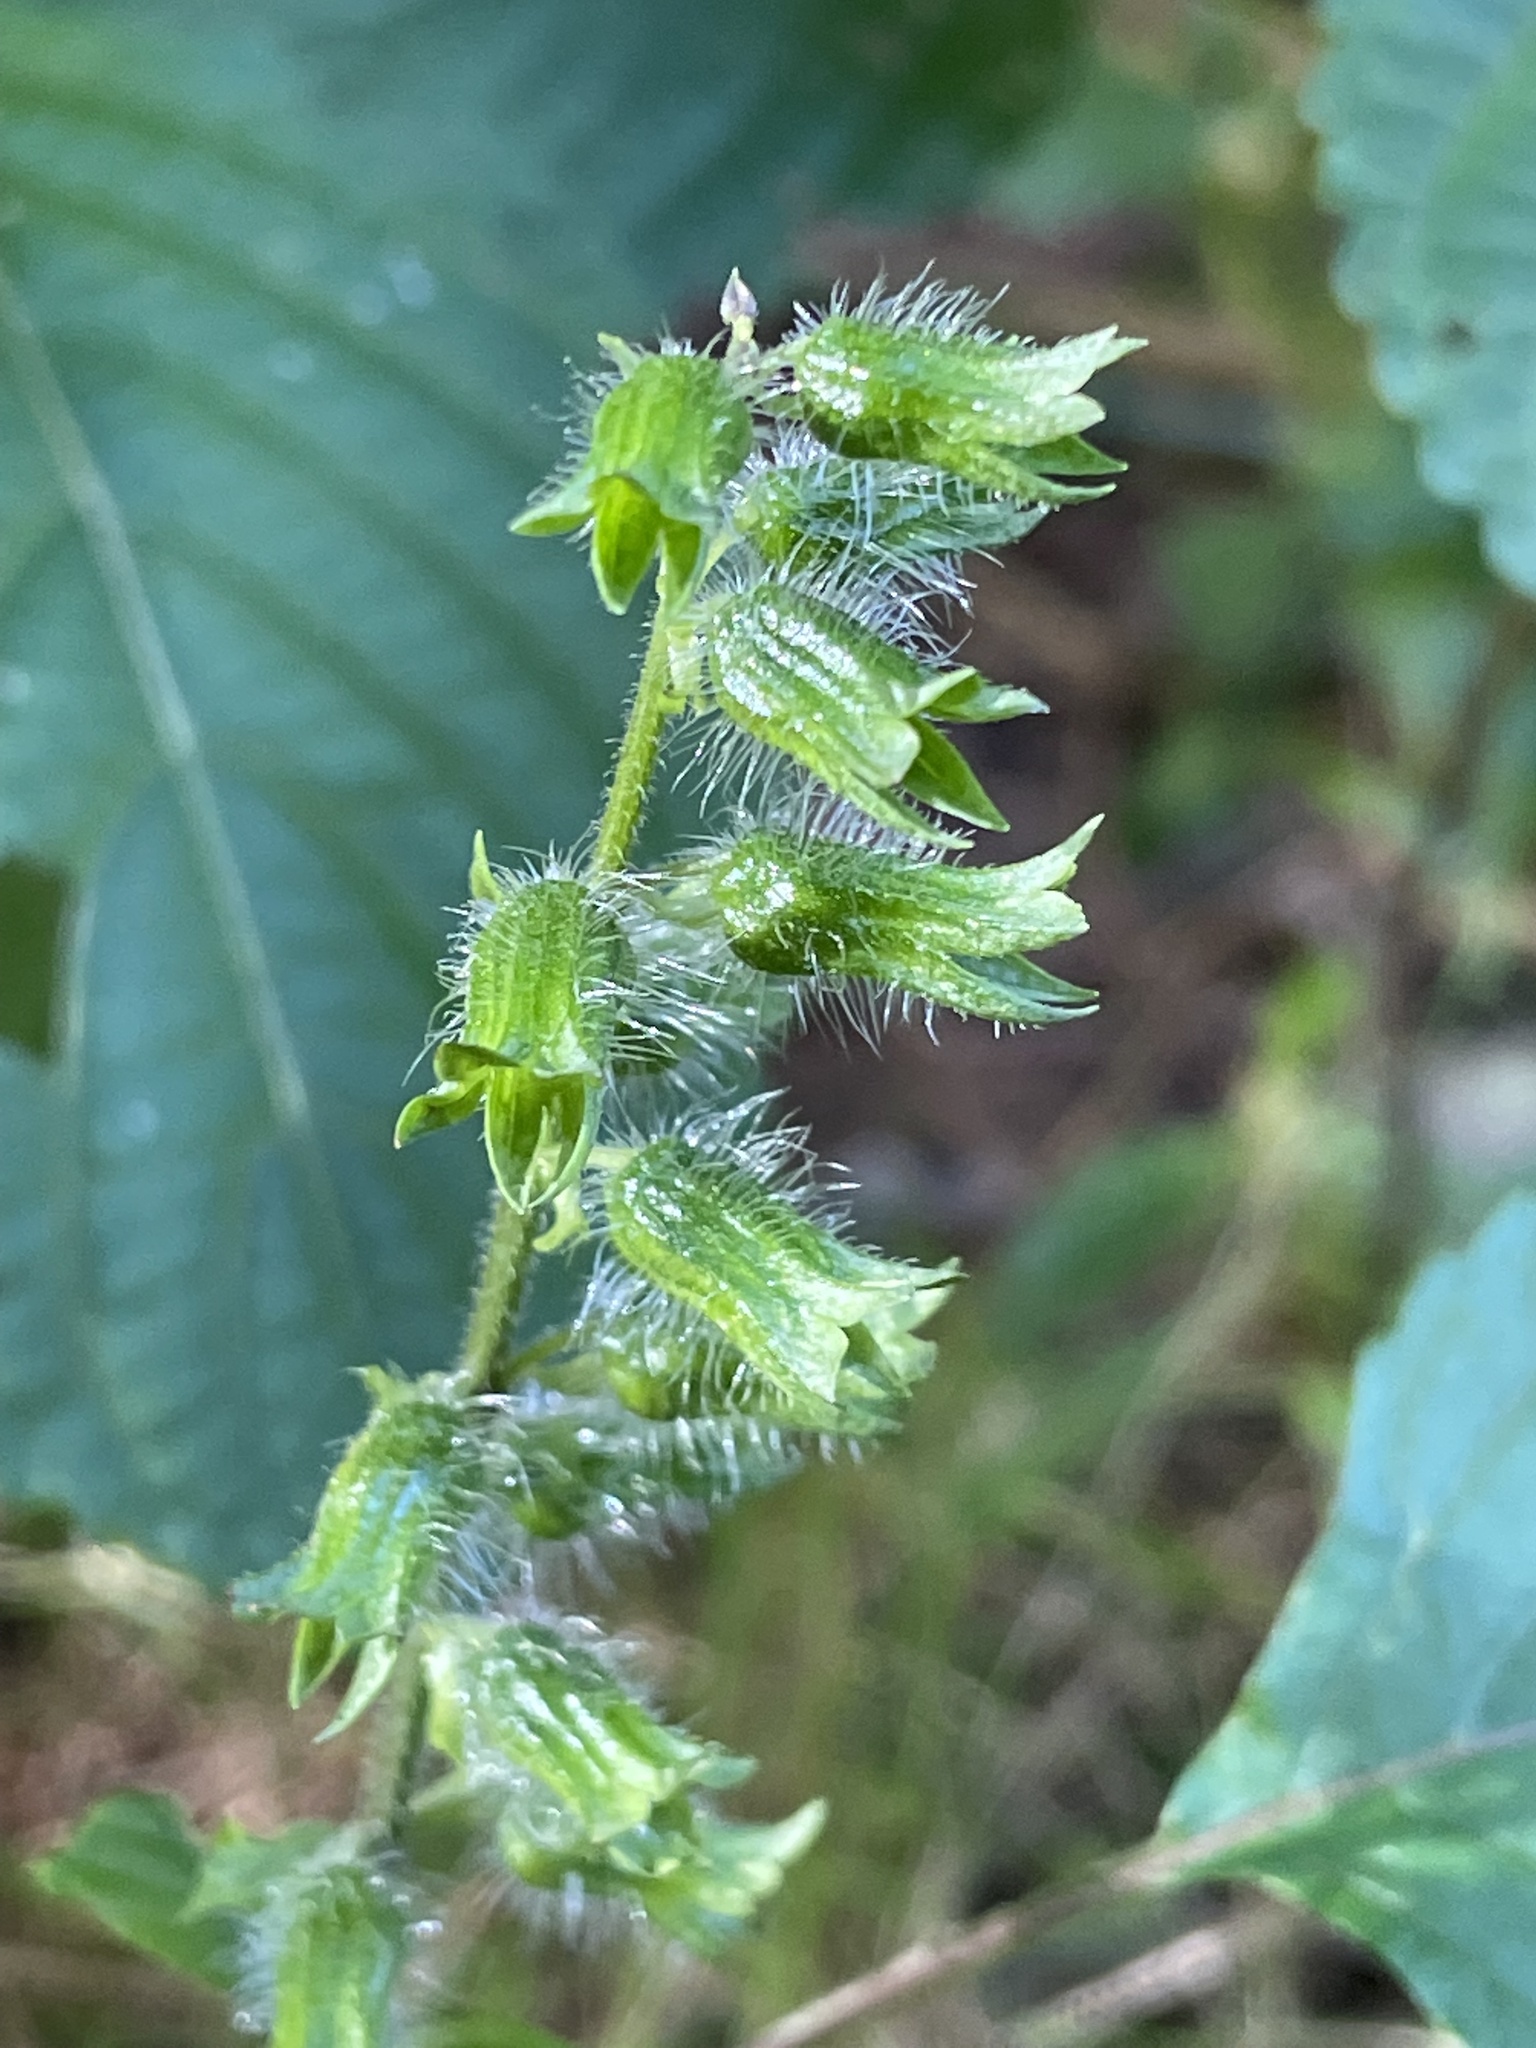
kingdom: Plantae
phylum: Tracheophyta
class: Magnoliopsida
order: Lamiales
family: Lamiaceae
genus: Perilla
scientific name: Perilla frutescens
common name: Perilla
